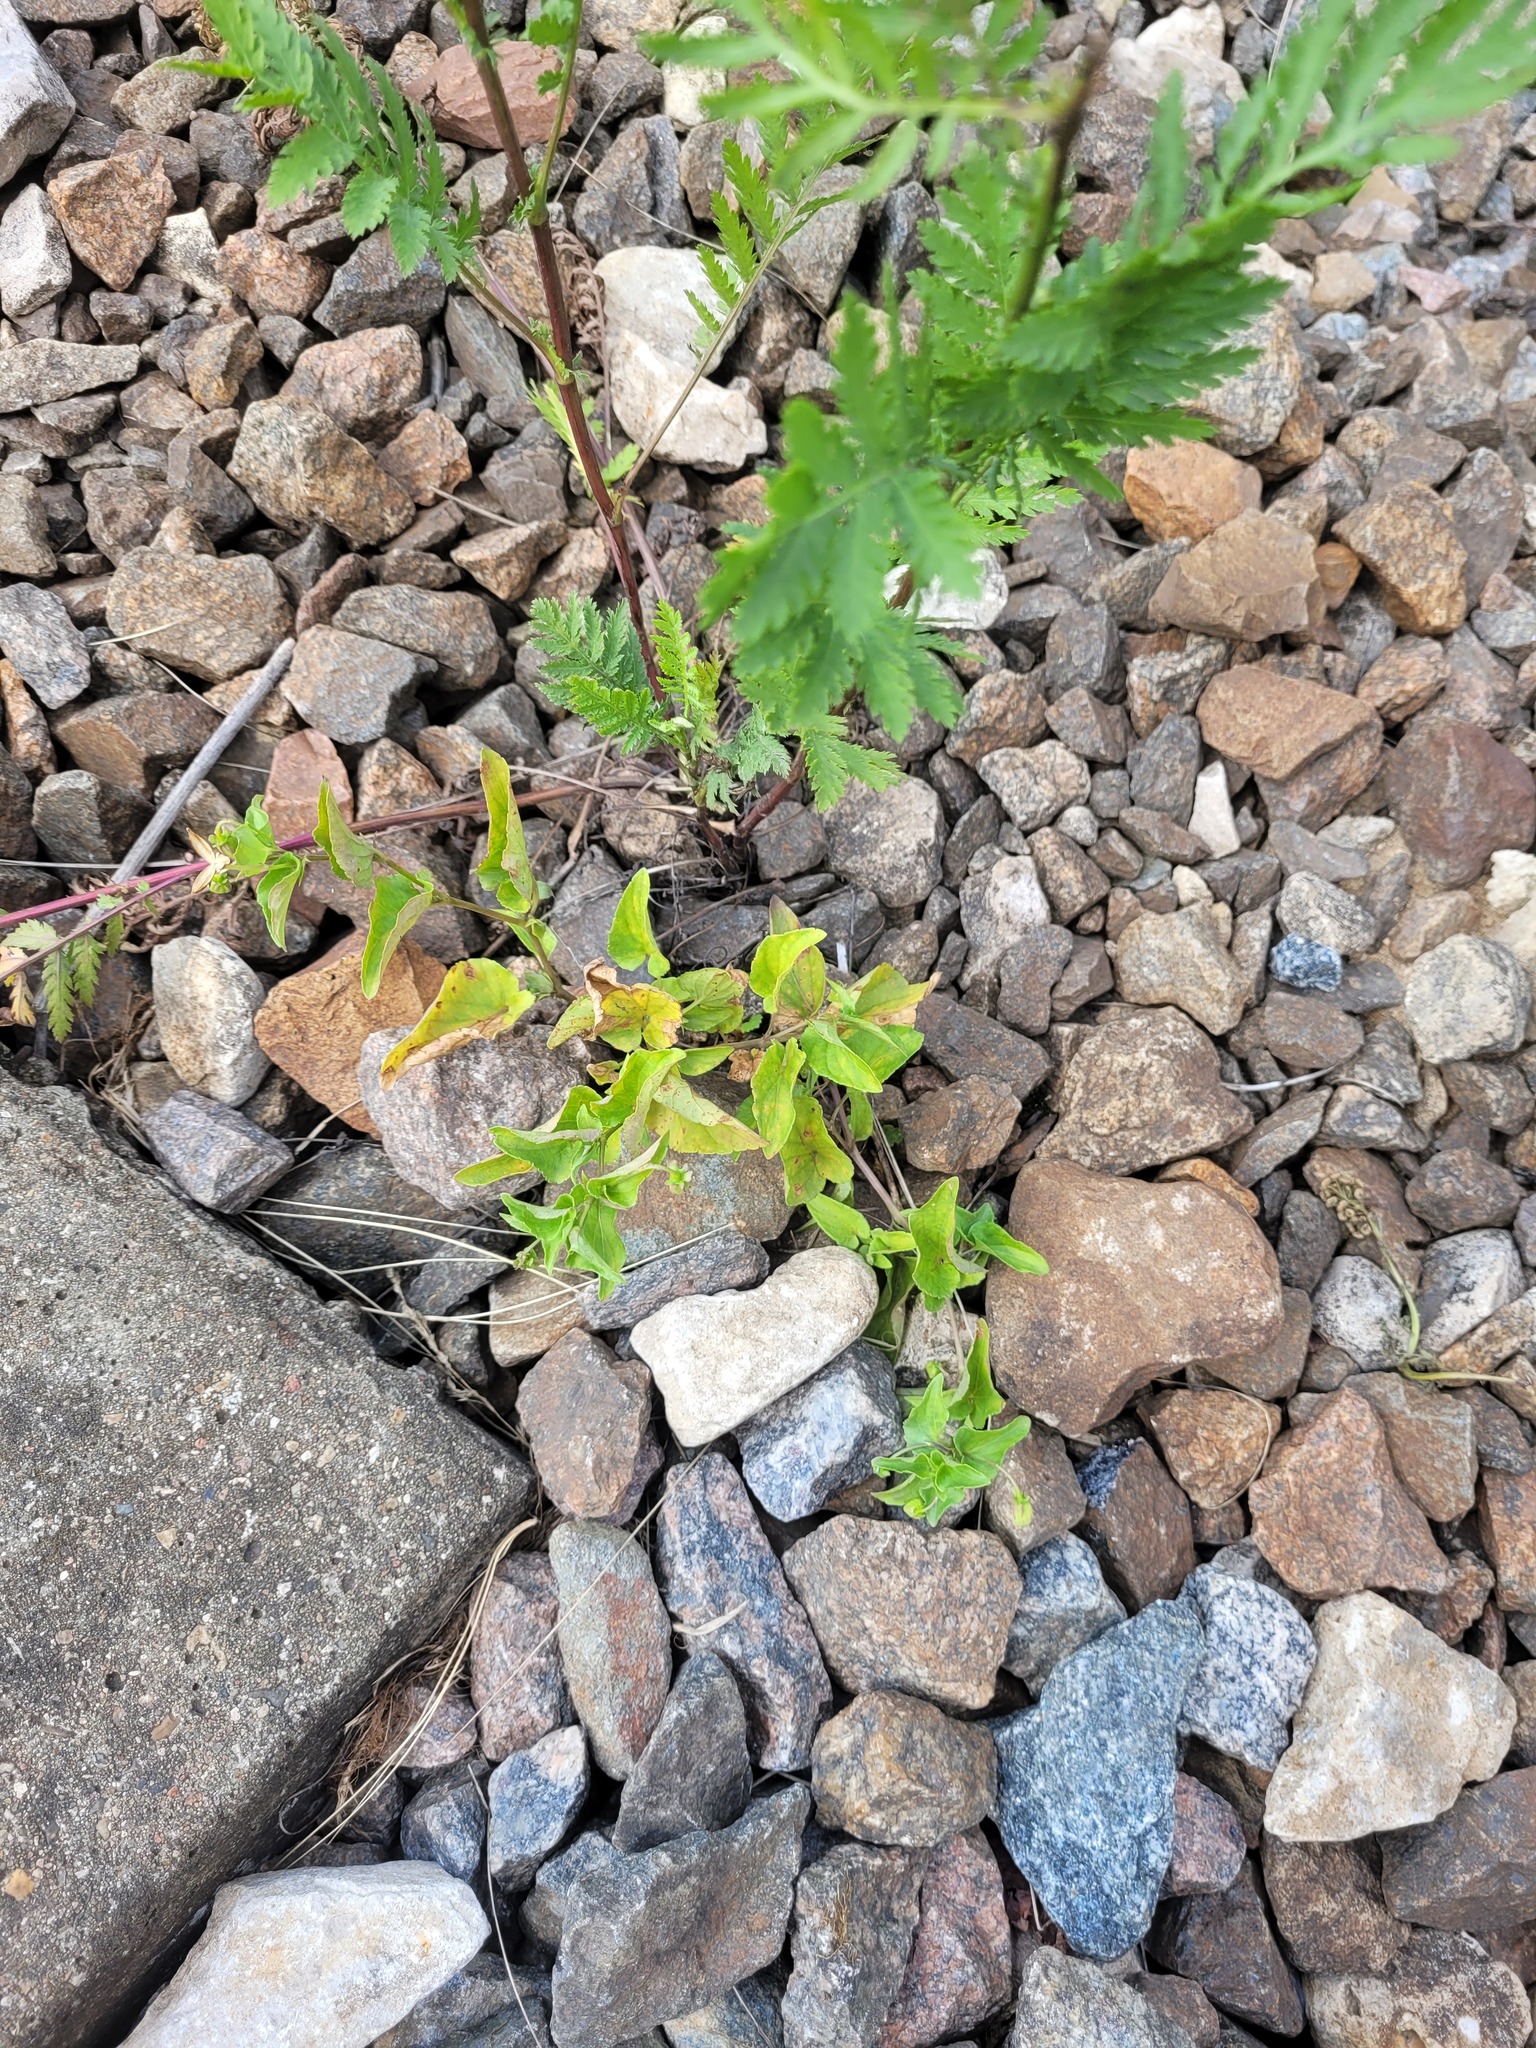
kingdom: Plantae
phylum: Tracheophyta
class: Magnoliopsida
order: Malpighiales
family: Violaceae
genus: Viola
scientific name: Viola
